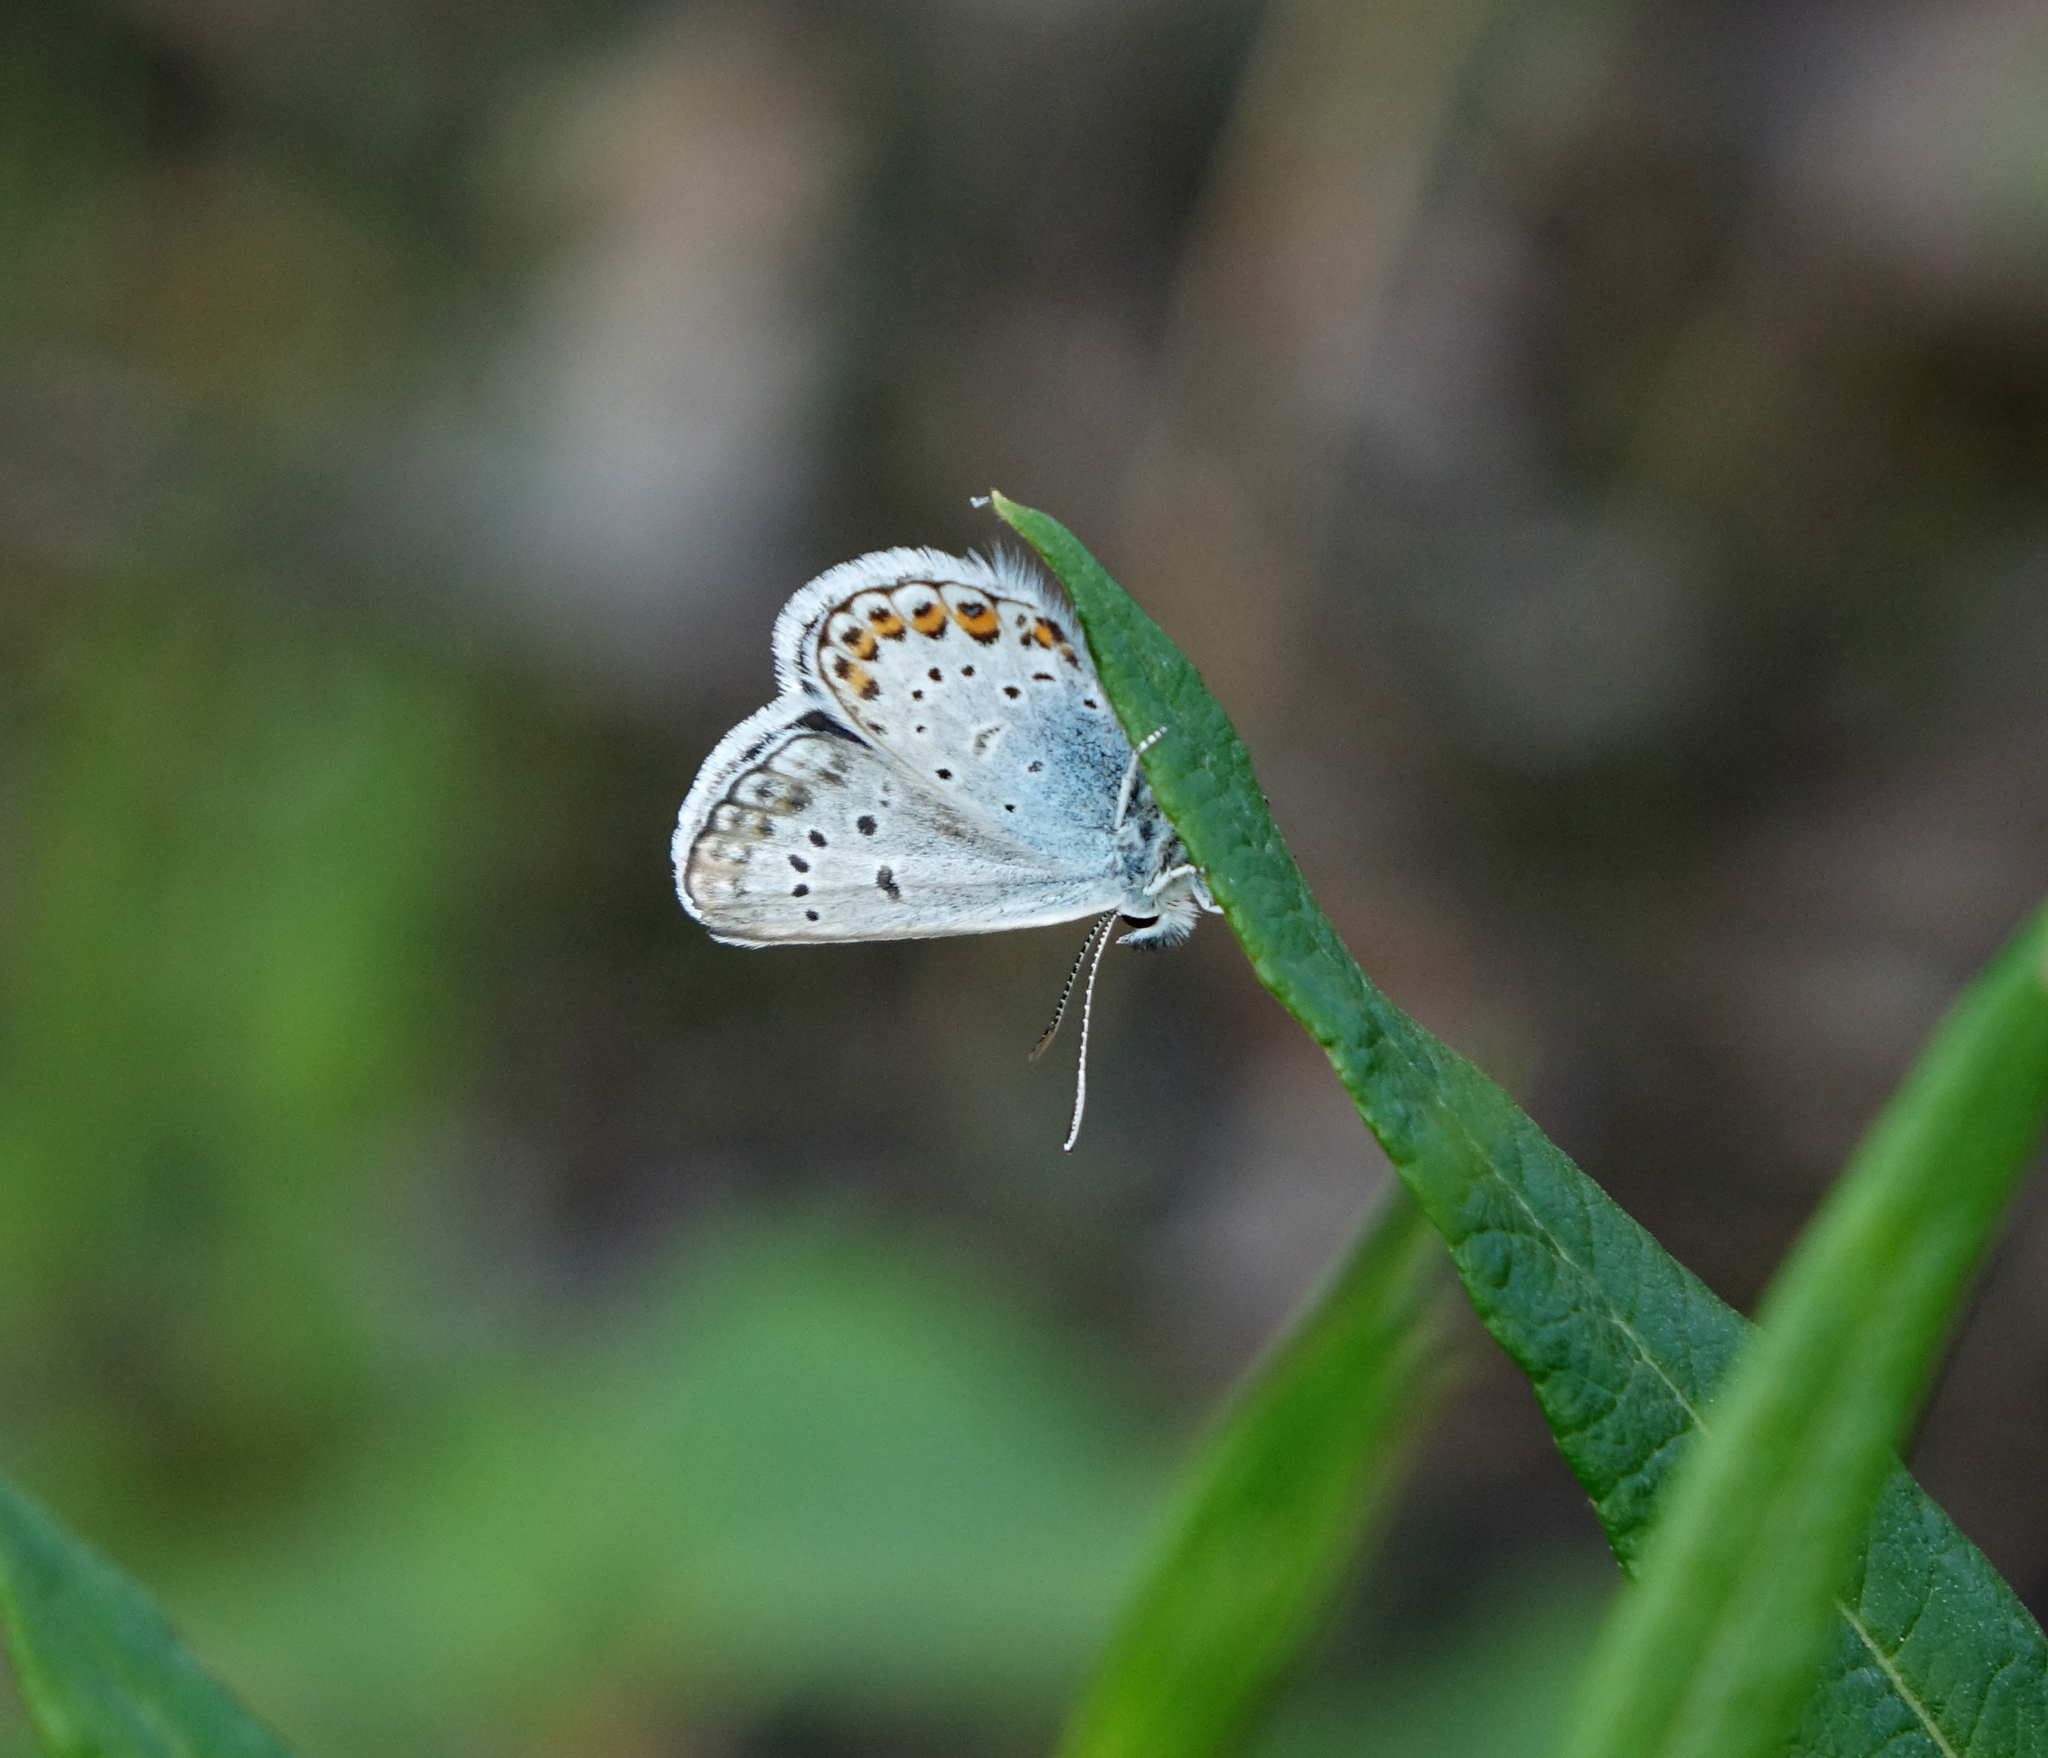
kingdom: Animalia
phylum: Arthropoda
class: Insecta
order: Lepidoptera
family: Lycaenidae
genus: Plebejus
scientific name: Plebejus argus
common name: Silver-studded blue
